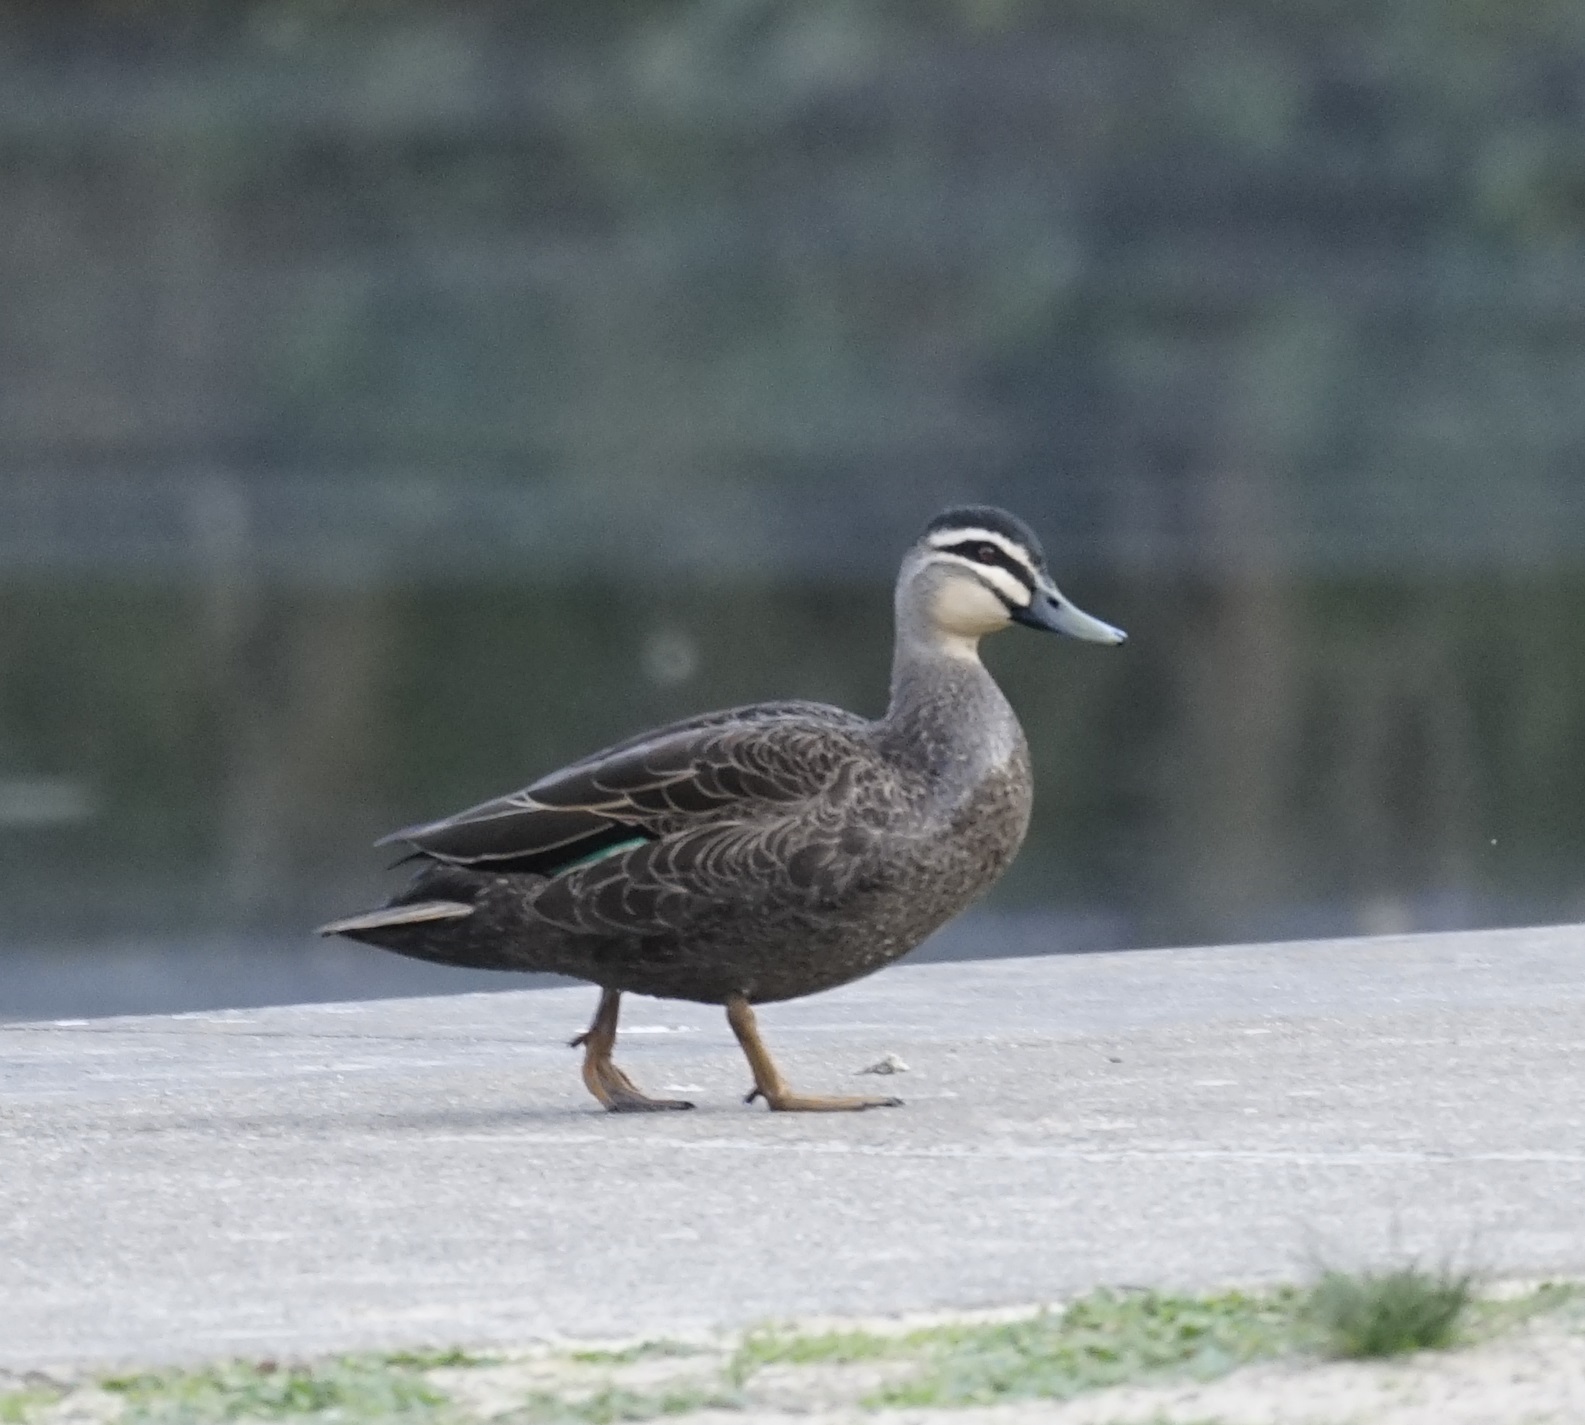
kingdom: Animalia
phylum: Chordata
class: Aves
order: Anseriformes
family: Anatidae
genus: Anas
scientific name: Anas superciliosa
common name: Pacific black duck
